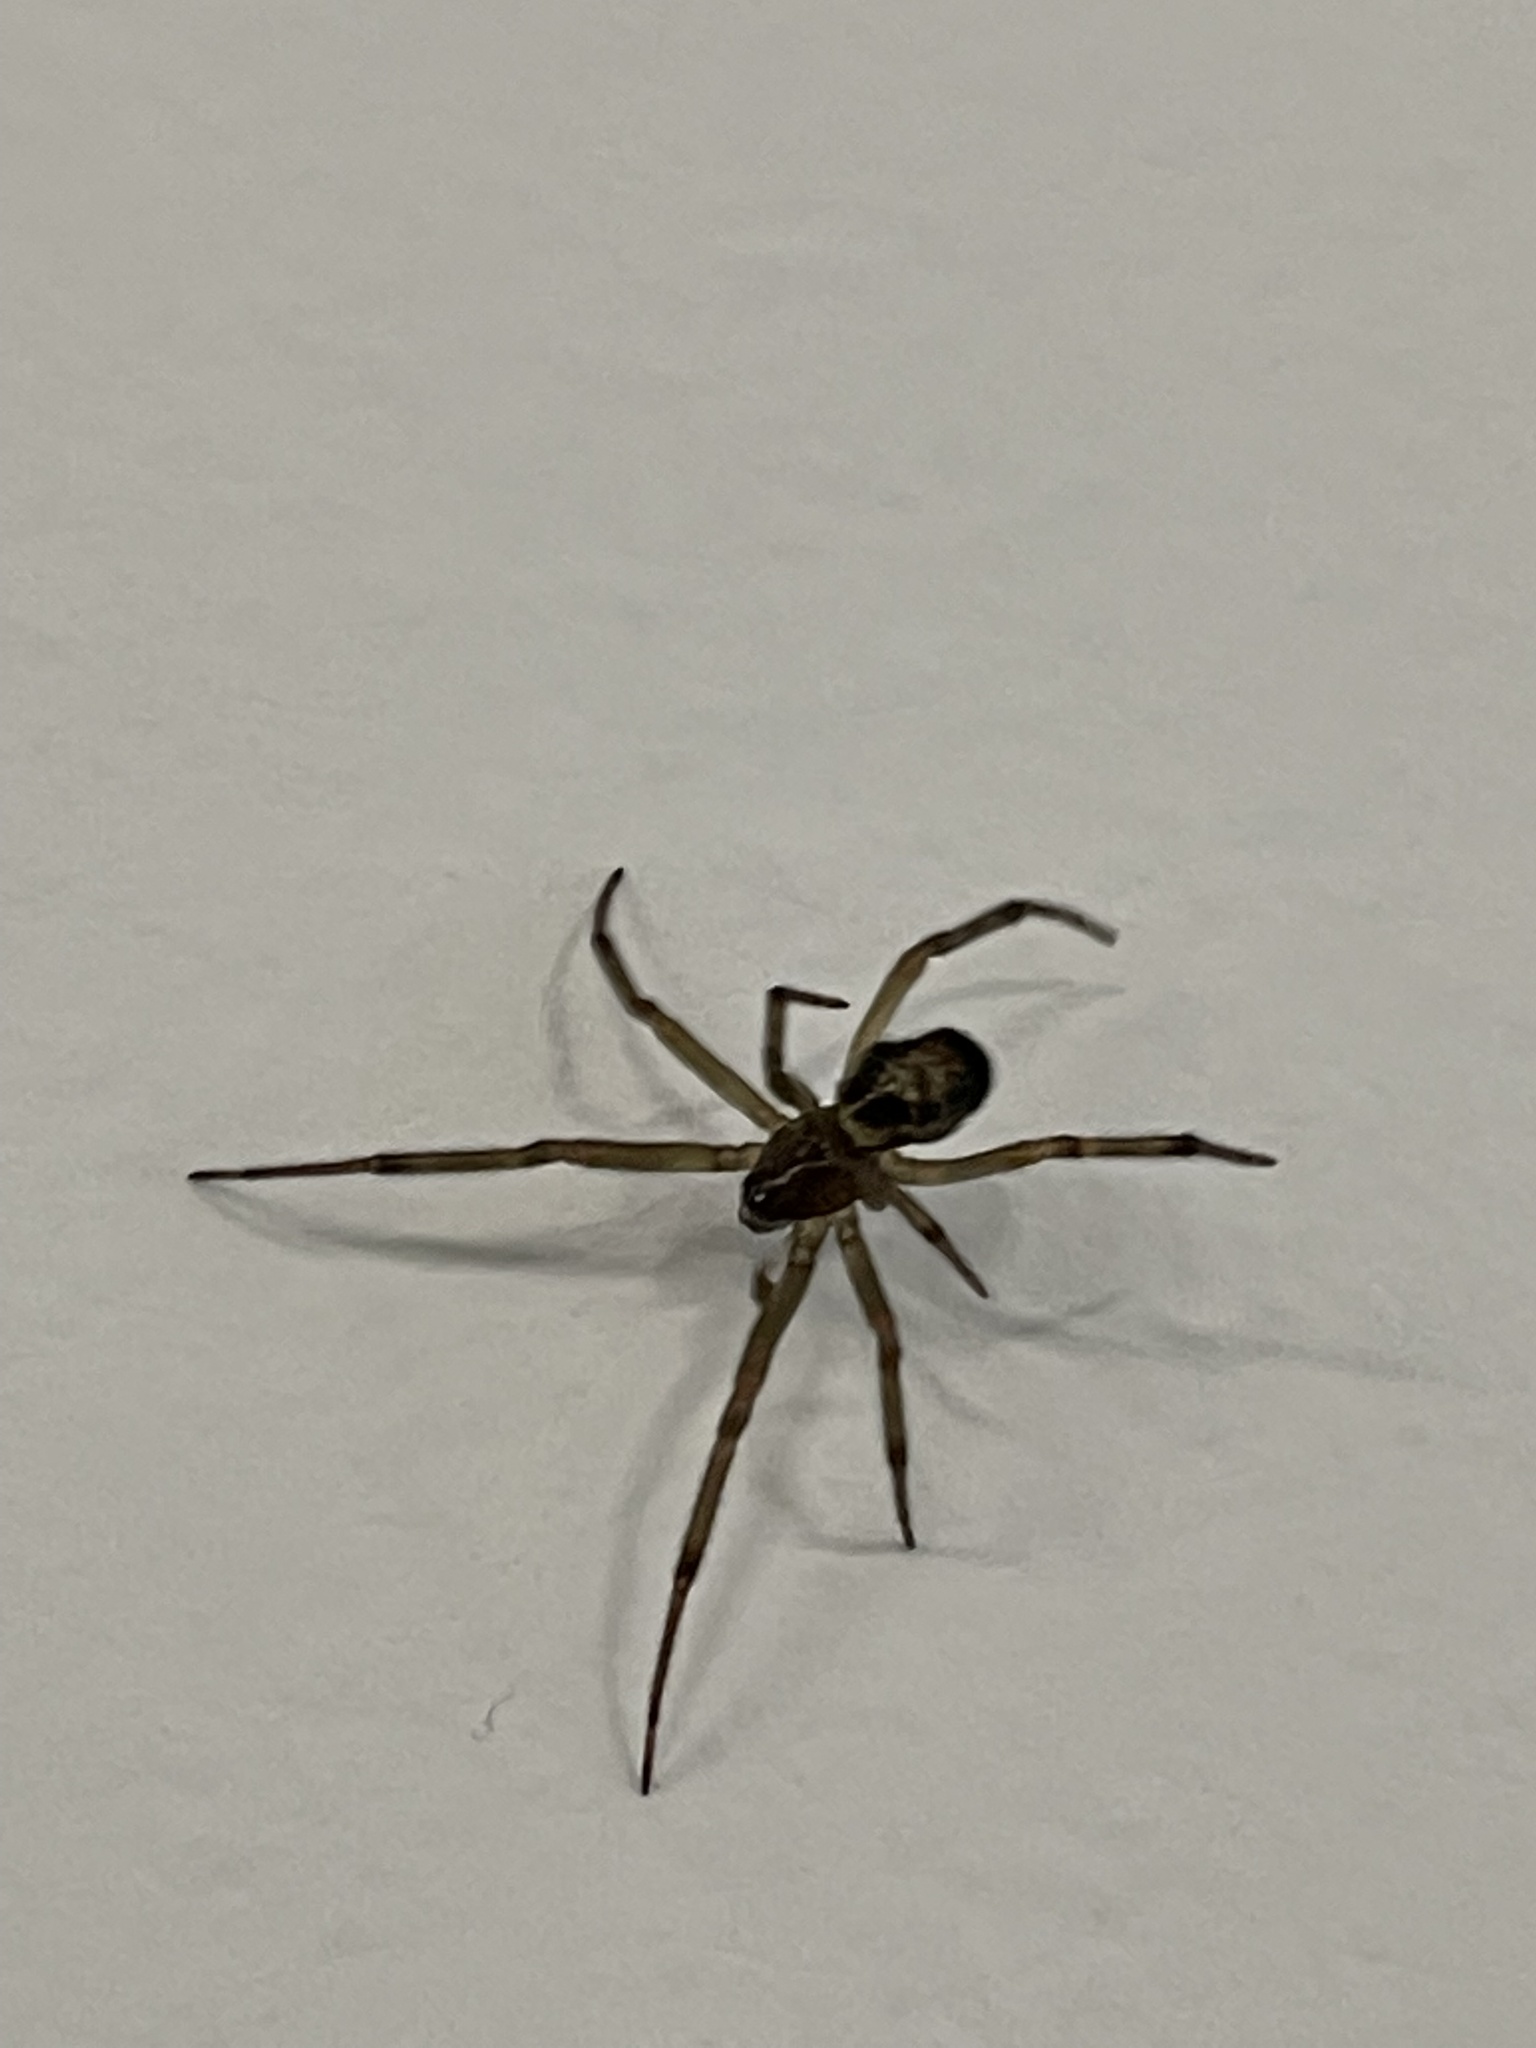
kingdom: Animalia
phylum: Arthropoda
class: Arachnida
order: Araneae
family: Theridiidae
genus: Steatoda
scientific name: Steatoda nobilis
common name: Cobweb weaver
